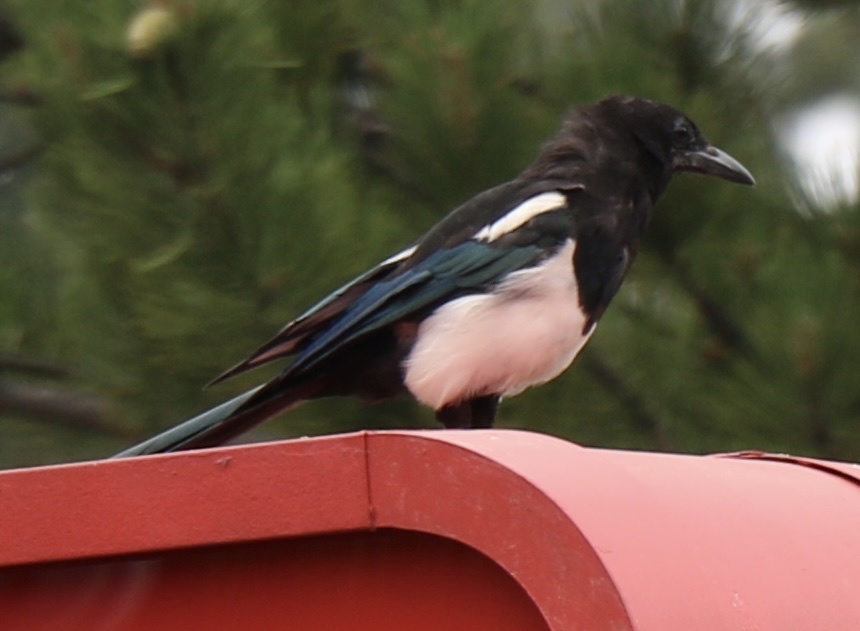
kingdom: Animalia
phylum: Chordata
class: Aves
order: Passeriformes
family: Corvidae
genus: Pica
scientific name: Pica hudsonia
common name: Black-billed magpie
